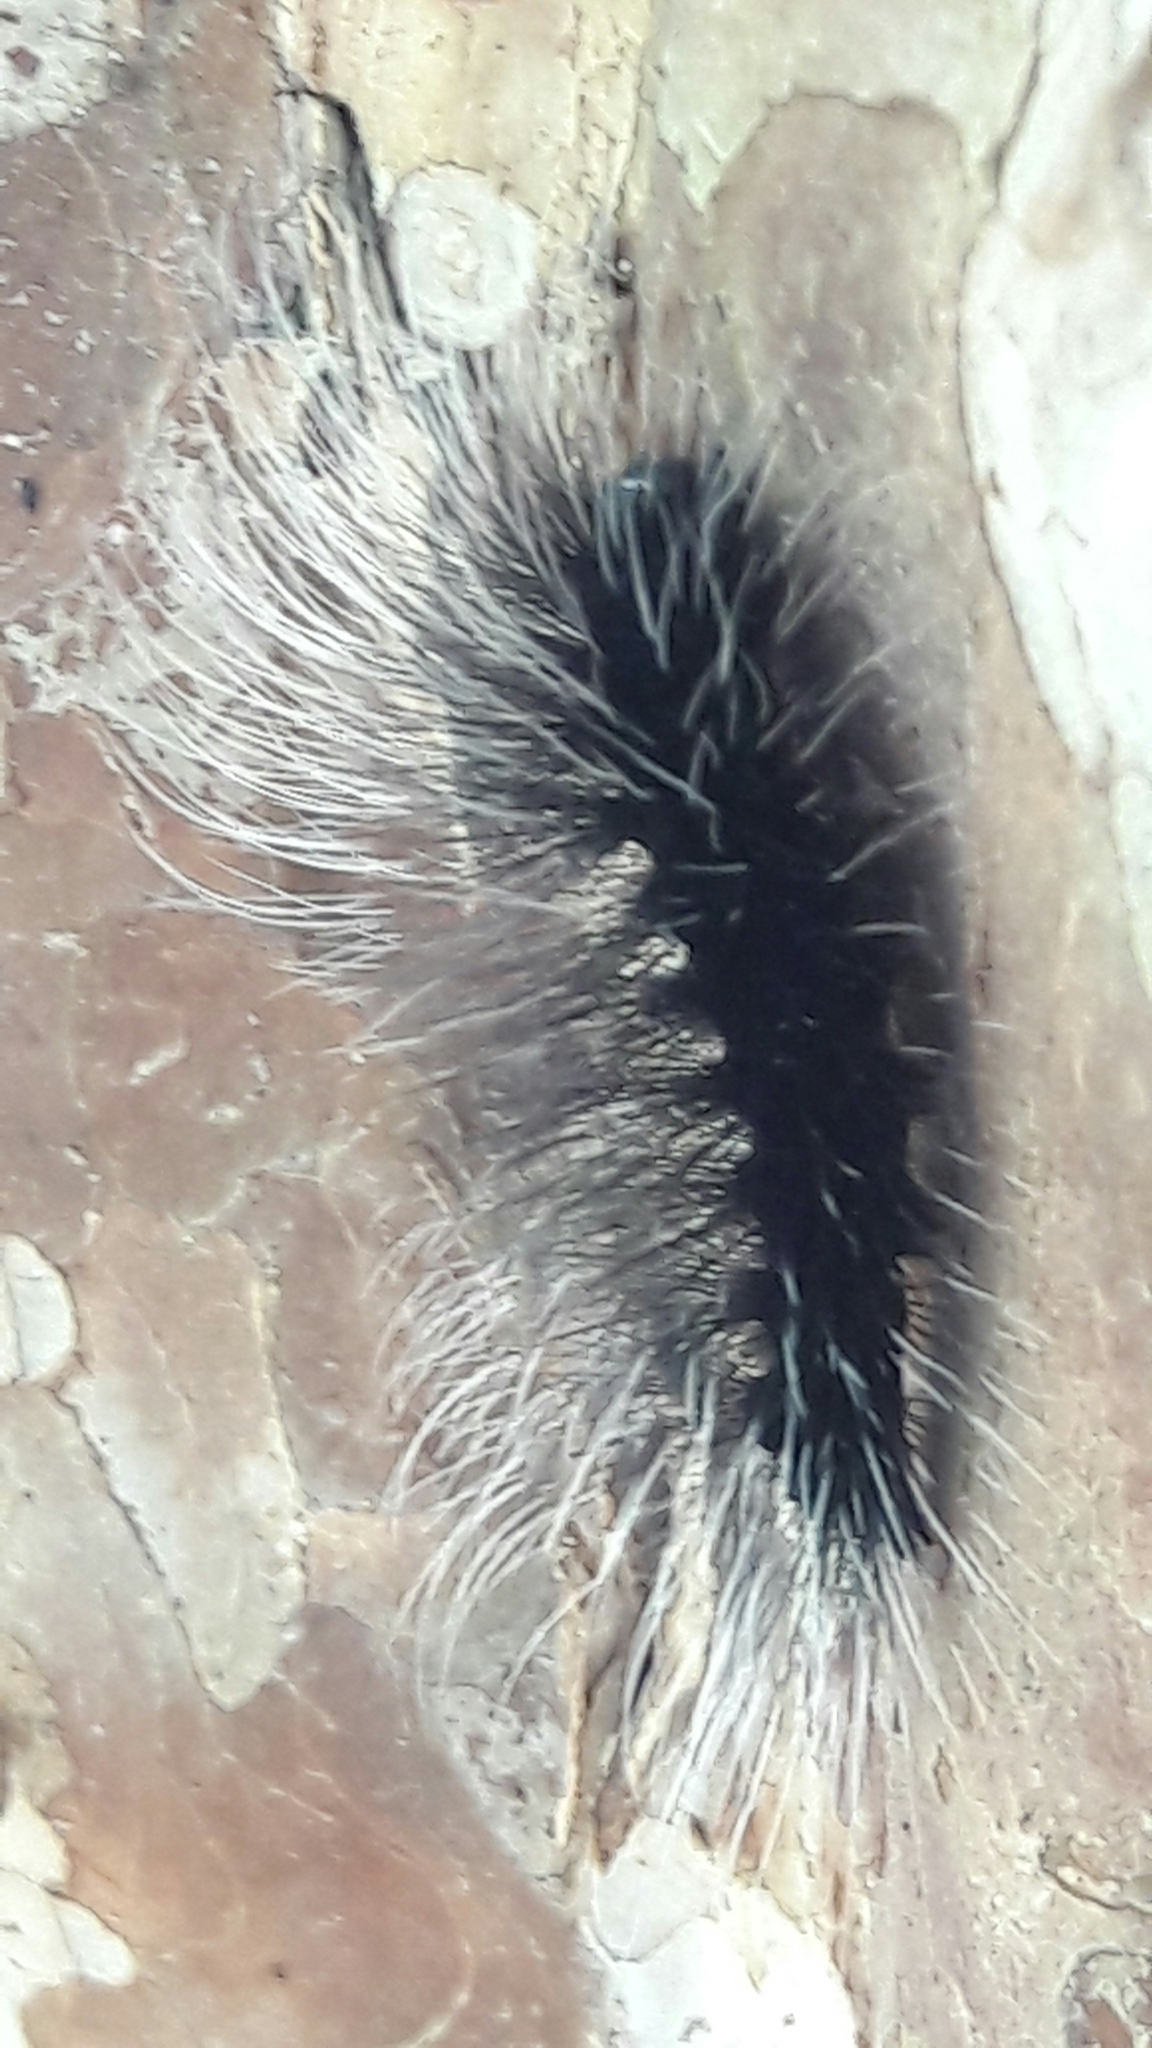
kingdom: Animalia
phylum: Arthropoda
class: Insecta
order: Lepidoptera
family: Erebidae
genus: Apistosia
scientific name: Apistosia judas
